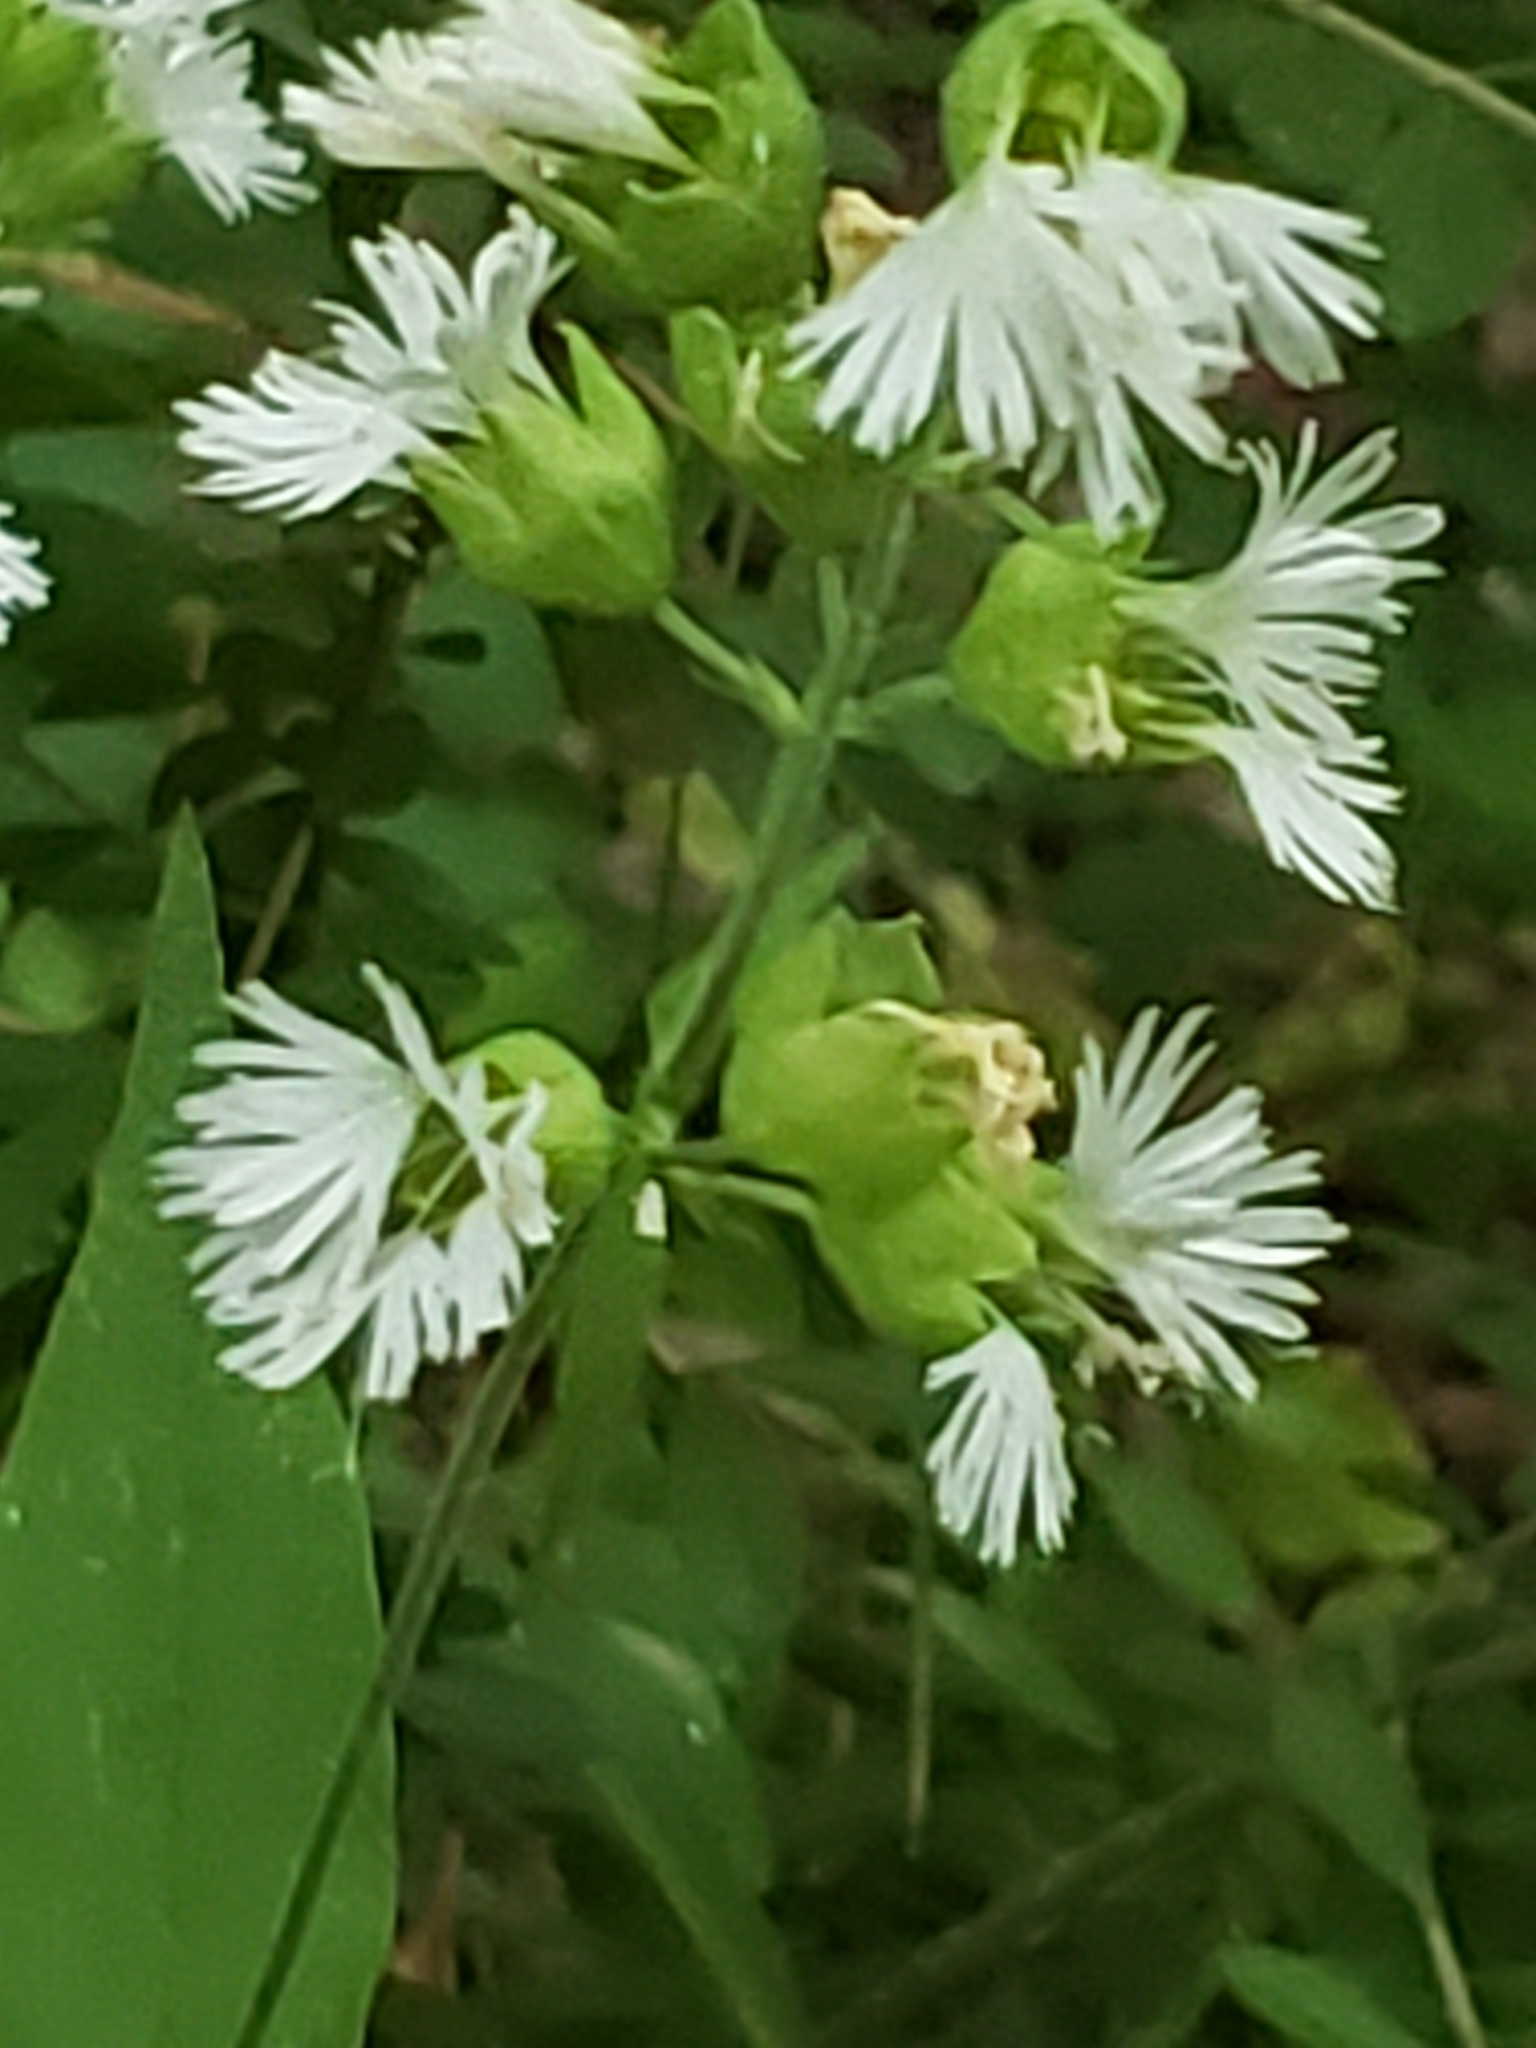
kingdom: Plantae
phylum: Tracheophyta
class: Magnoliopsida
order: Caryophyllales
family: Caryophyllaceae
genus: Silene
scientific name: Silene stellata
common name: Starry campion
